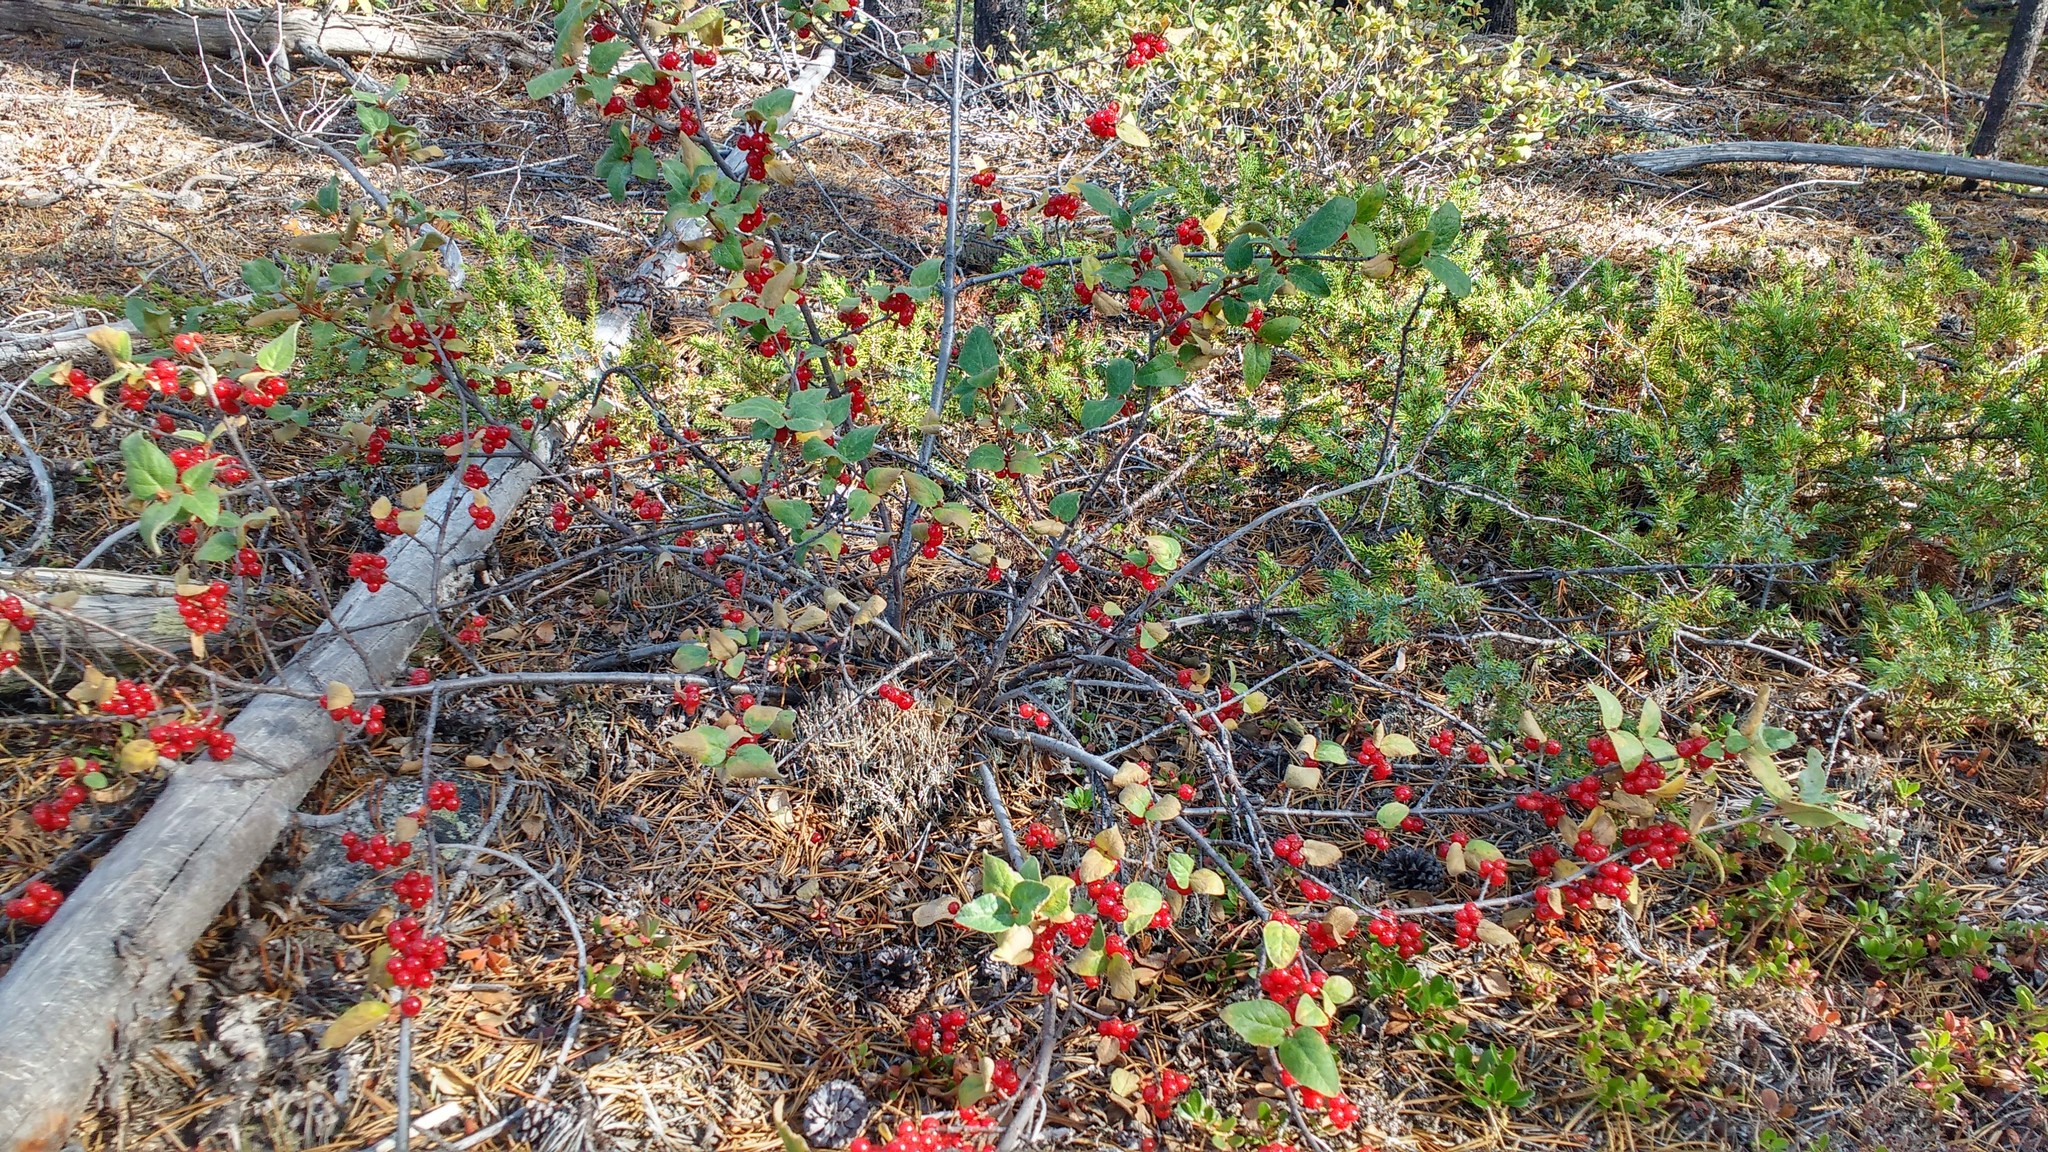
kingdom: Plantae
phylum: Tracheophyta
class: Magnoliopsida
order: Rosales
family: Elaeagnaceae
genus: Shepherdia
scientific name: Shepherdia canadensis
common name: Soapberry
